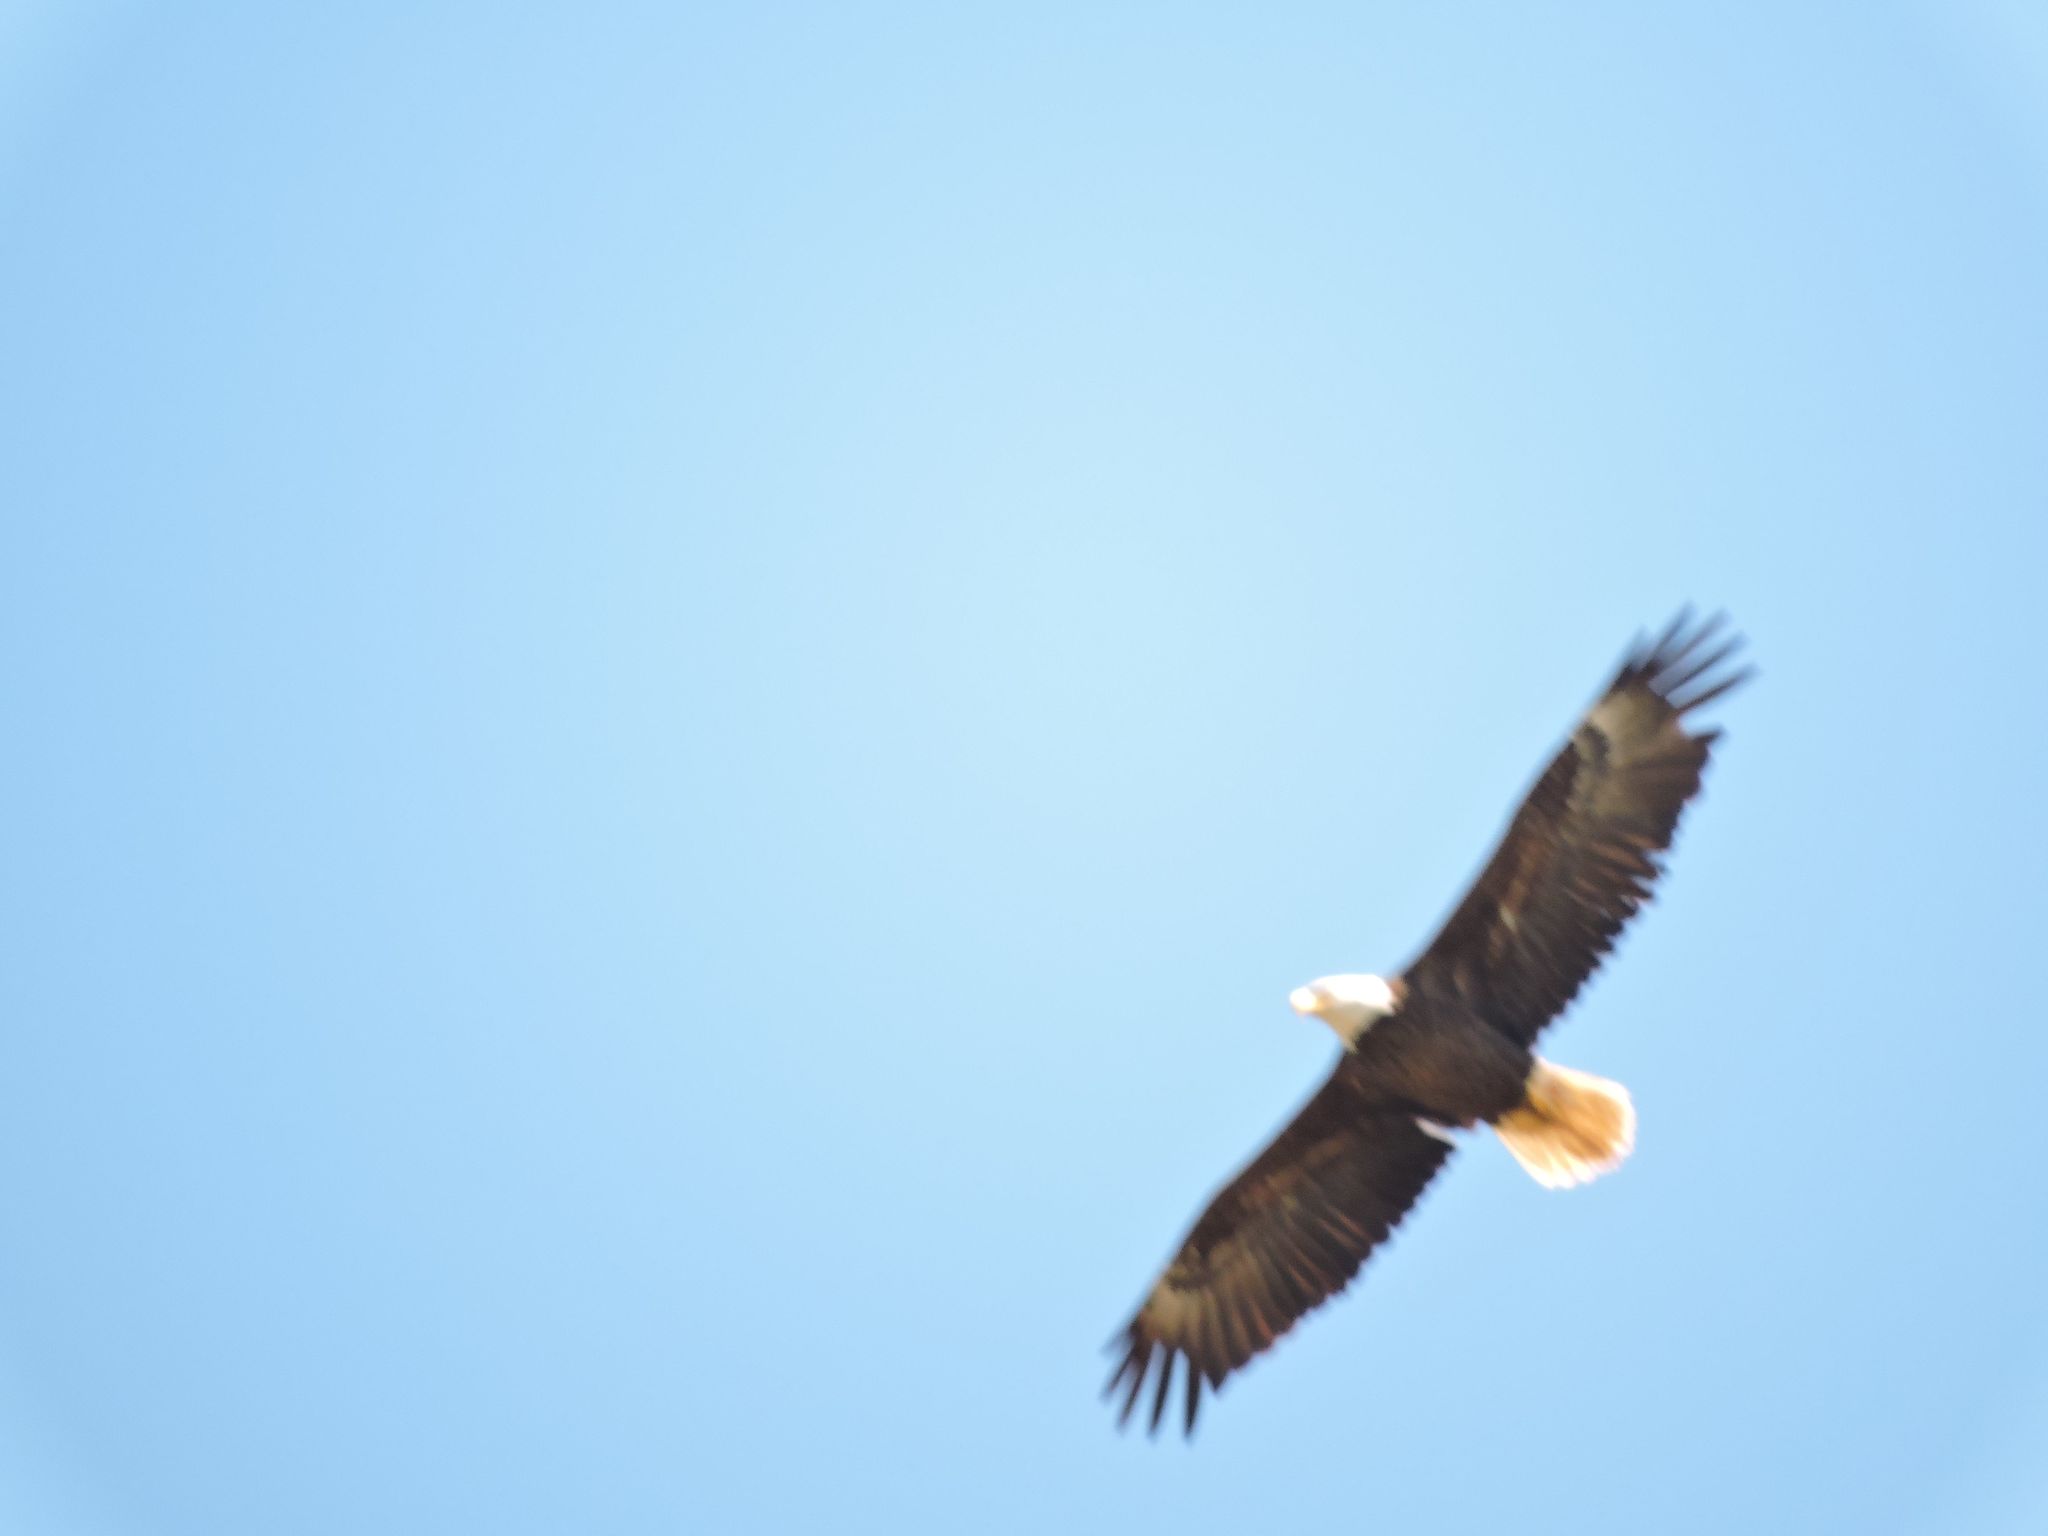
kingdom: Animalia
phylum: Chordata
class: Aves
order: Accipitriformes
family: Accipitridae
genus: Haliaeetus
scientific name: Haliaeetus leucocephalus
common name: Bald eagle
